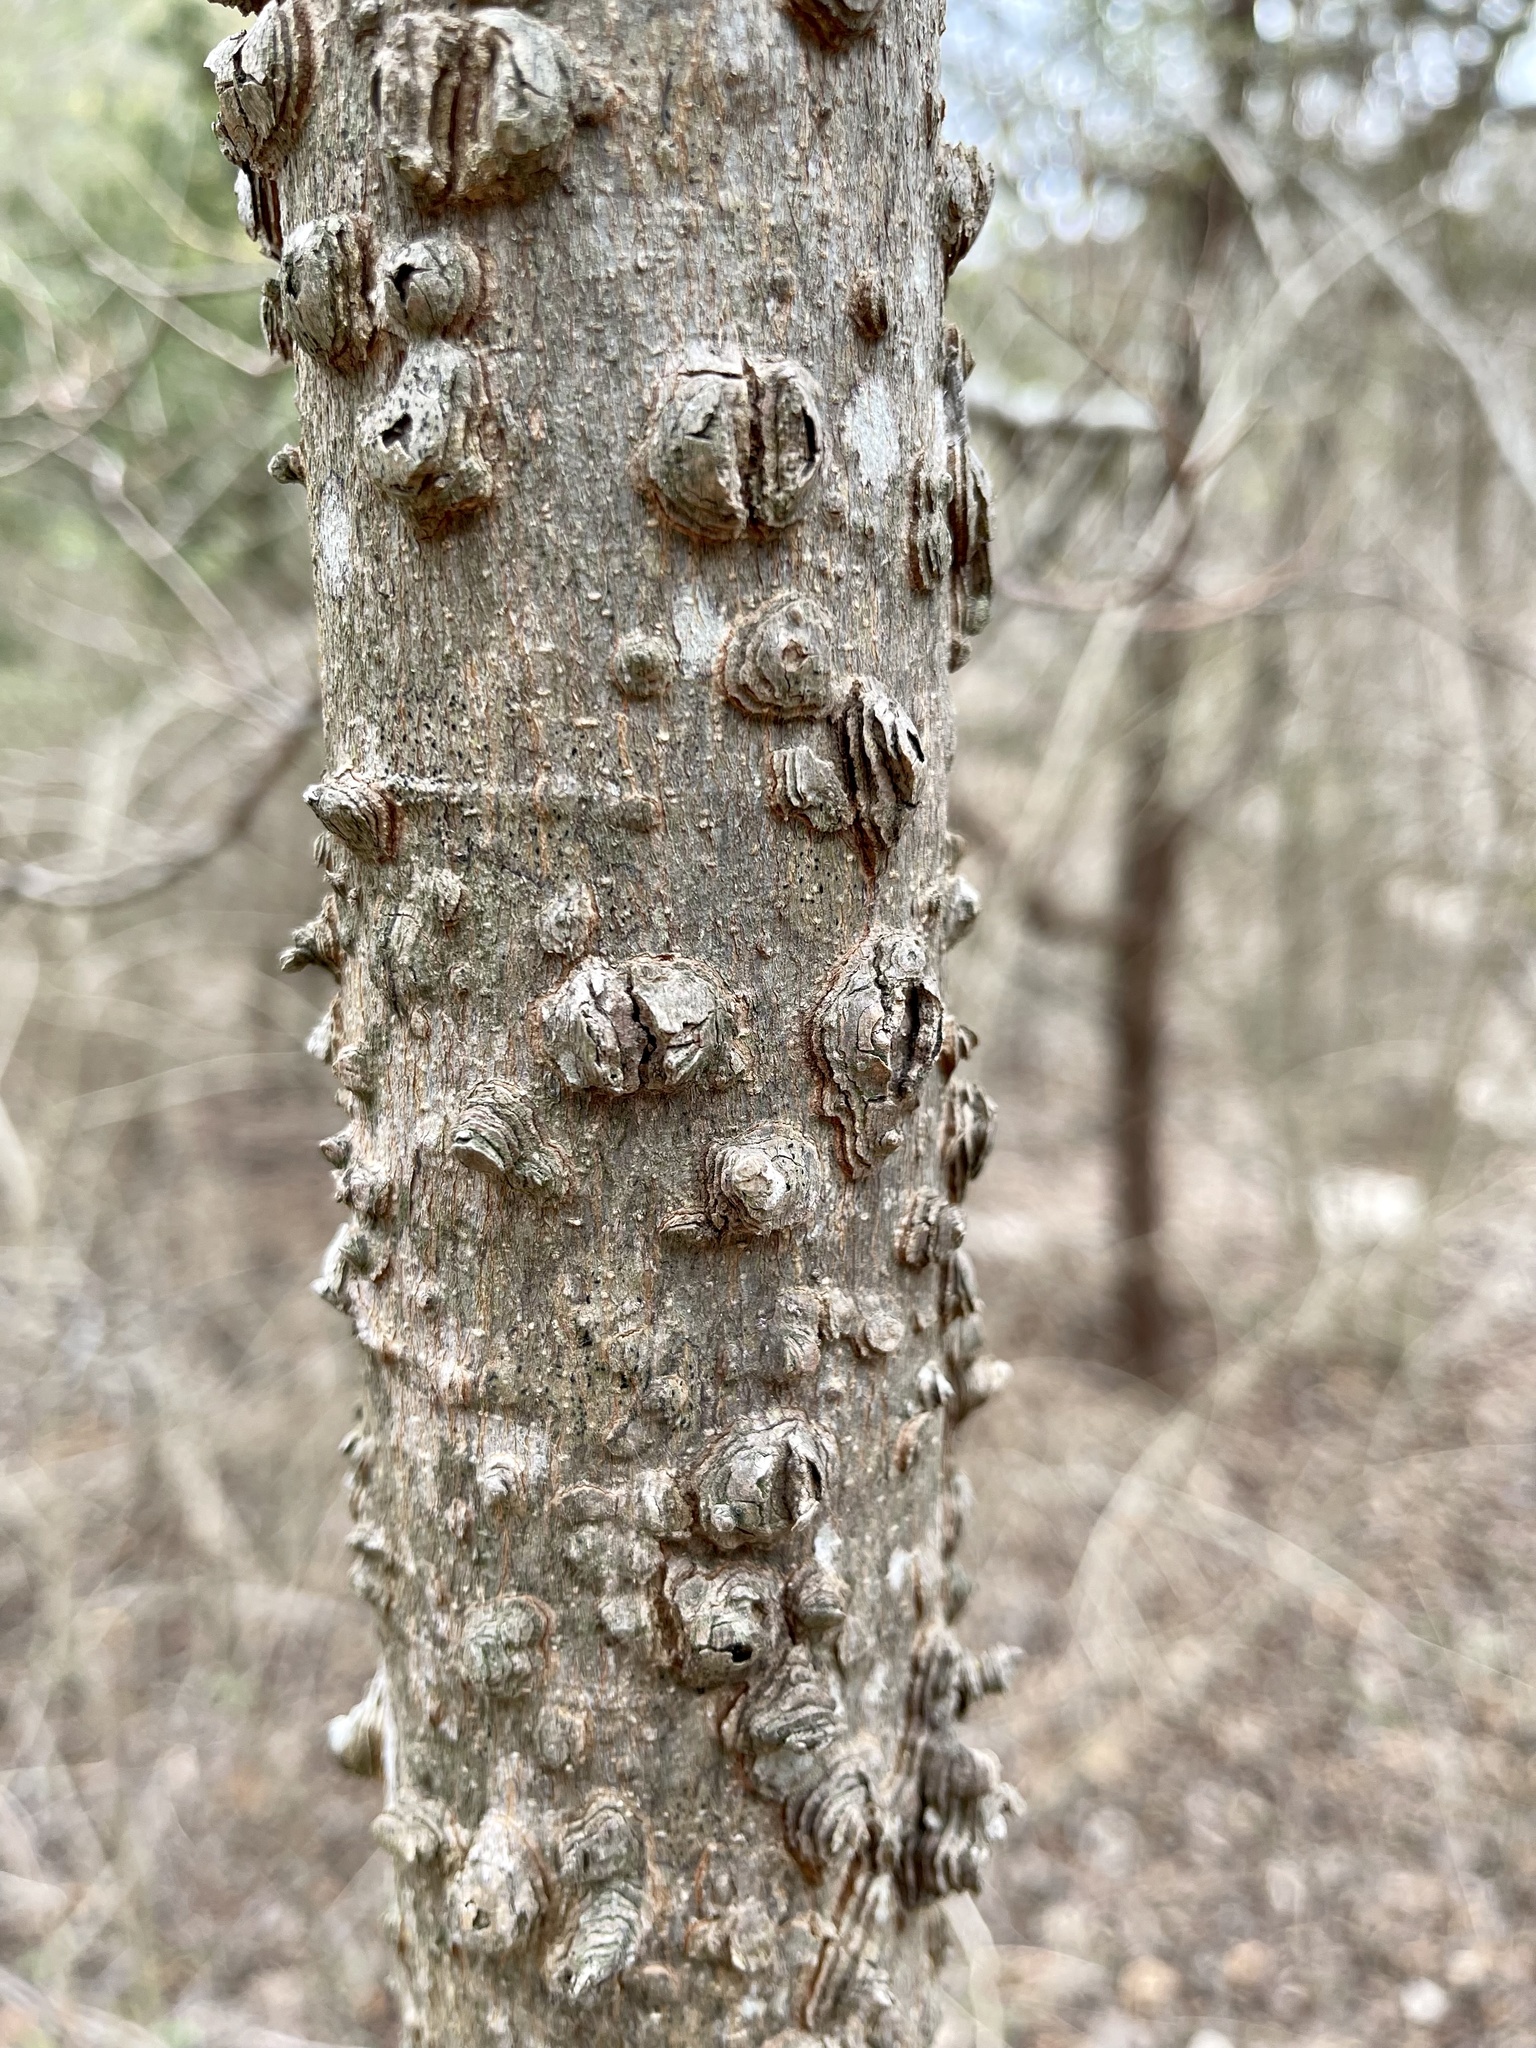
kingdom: Plantae
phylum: Tracheophyta
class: Magnoliopsida
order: Rosales
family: Cannabaceae
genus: Celtis
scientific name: Celtis laevigata
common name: Sugarberry
